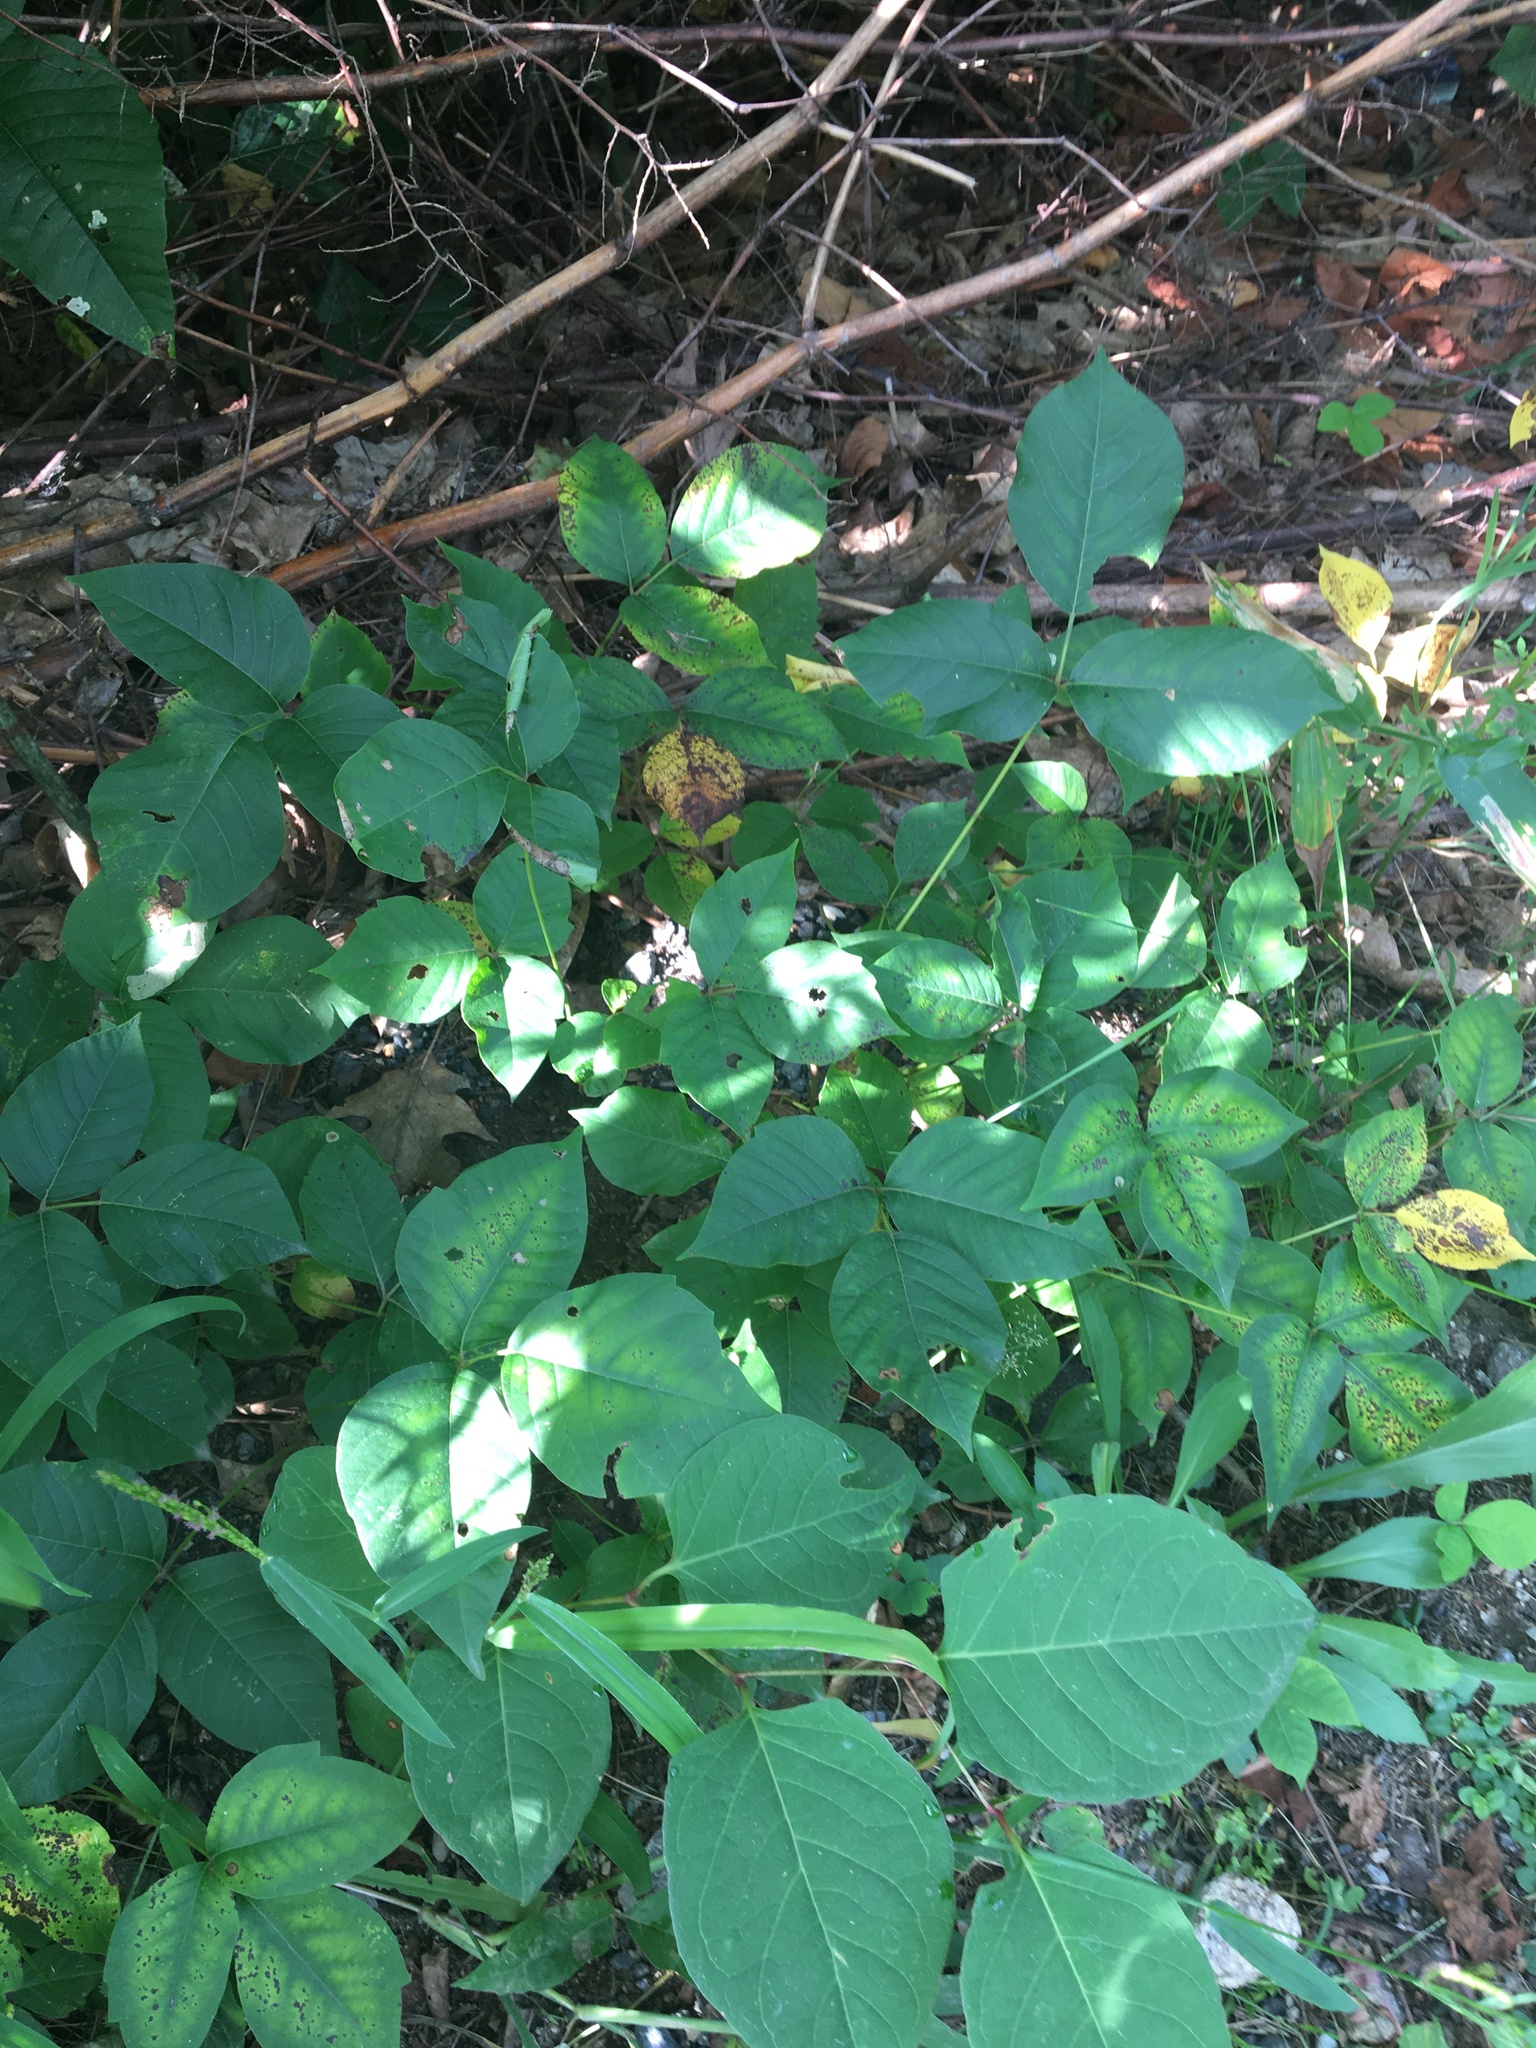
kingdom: Plantae
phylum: Tracheophyta
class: Magnoliopsida
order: Sapindales
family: Anacardiaceae
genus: Toxicodendron
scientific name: Toxicodendron radicans
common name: Poison ivy
